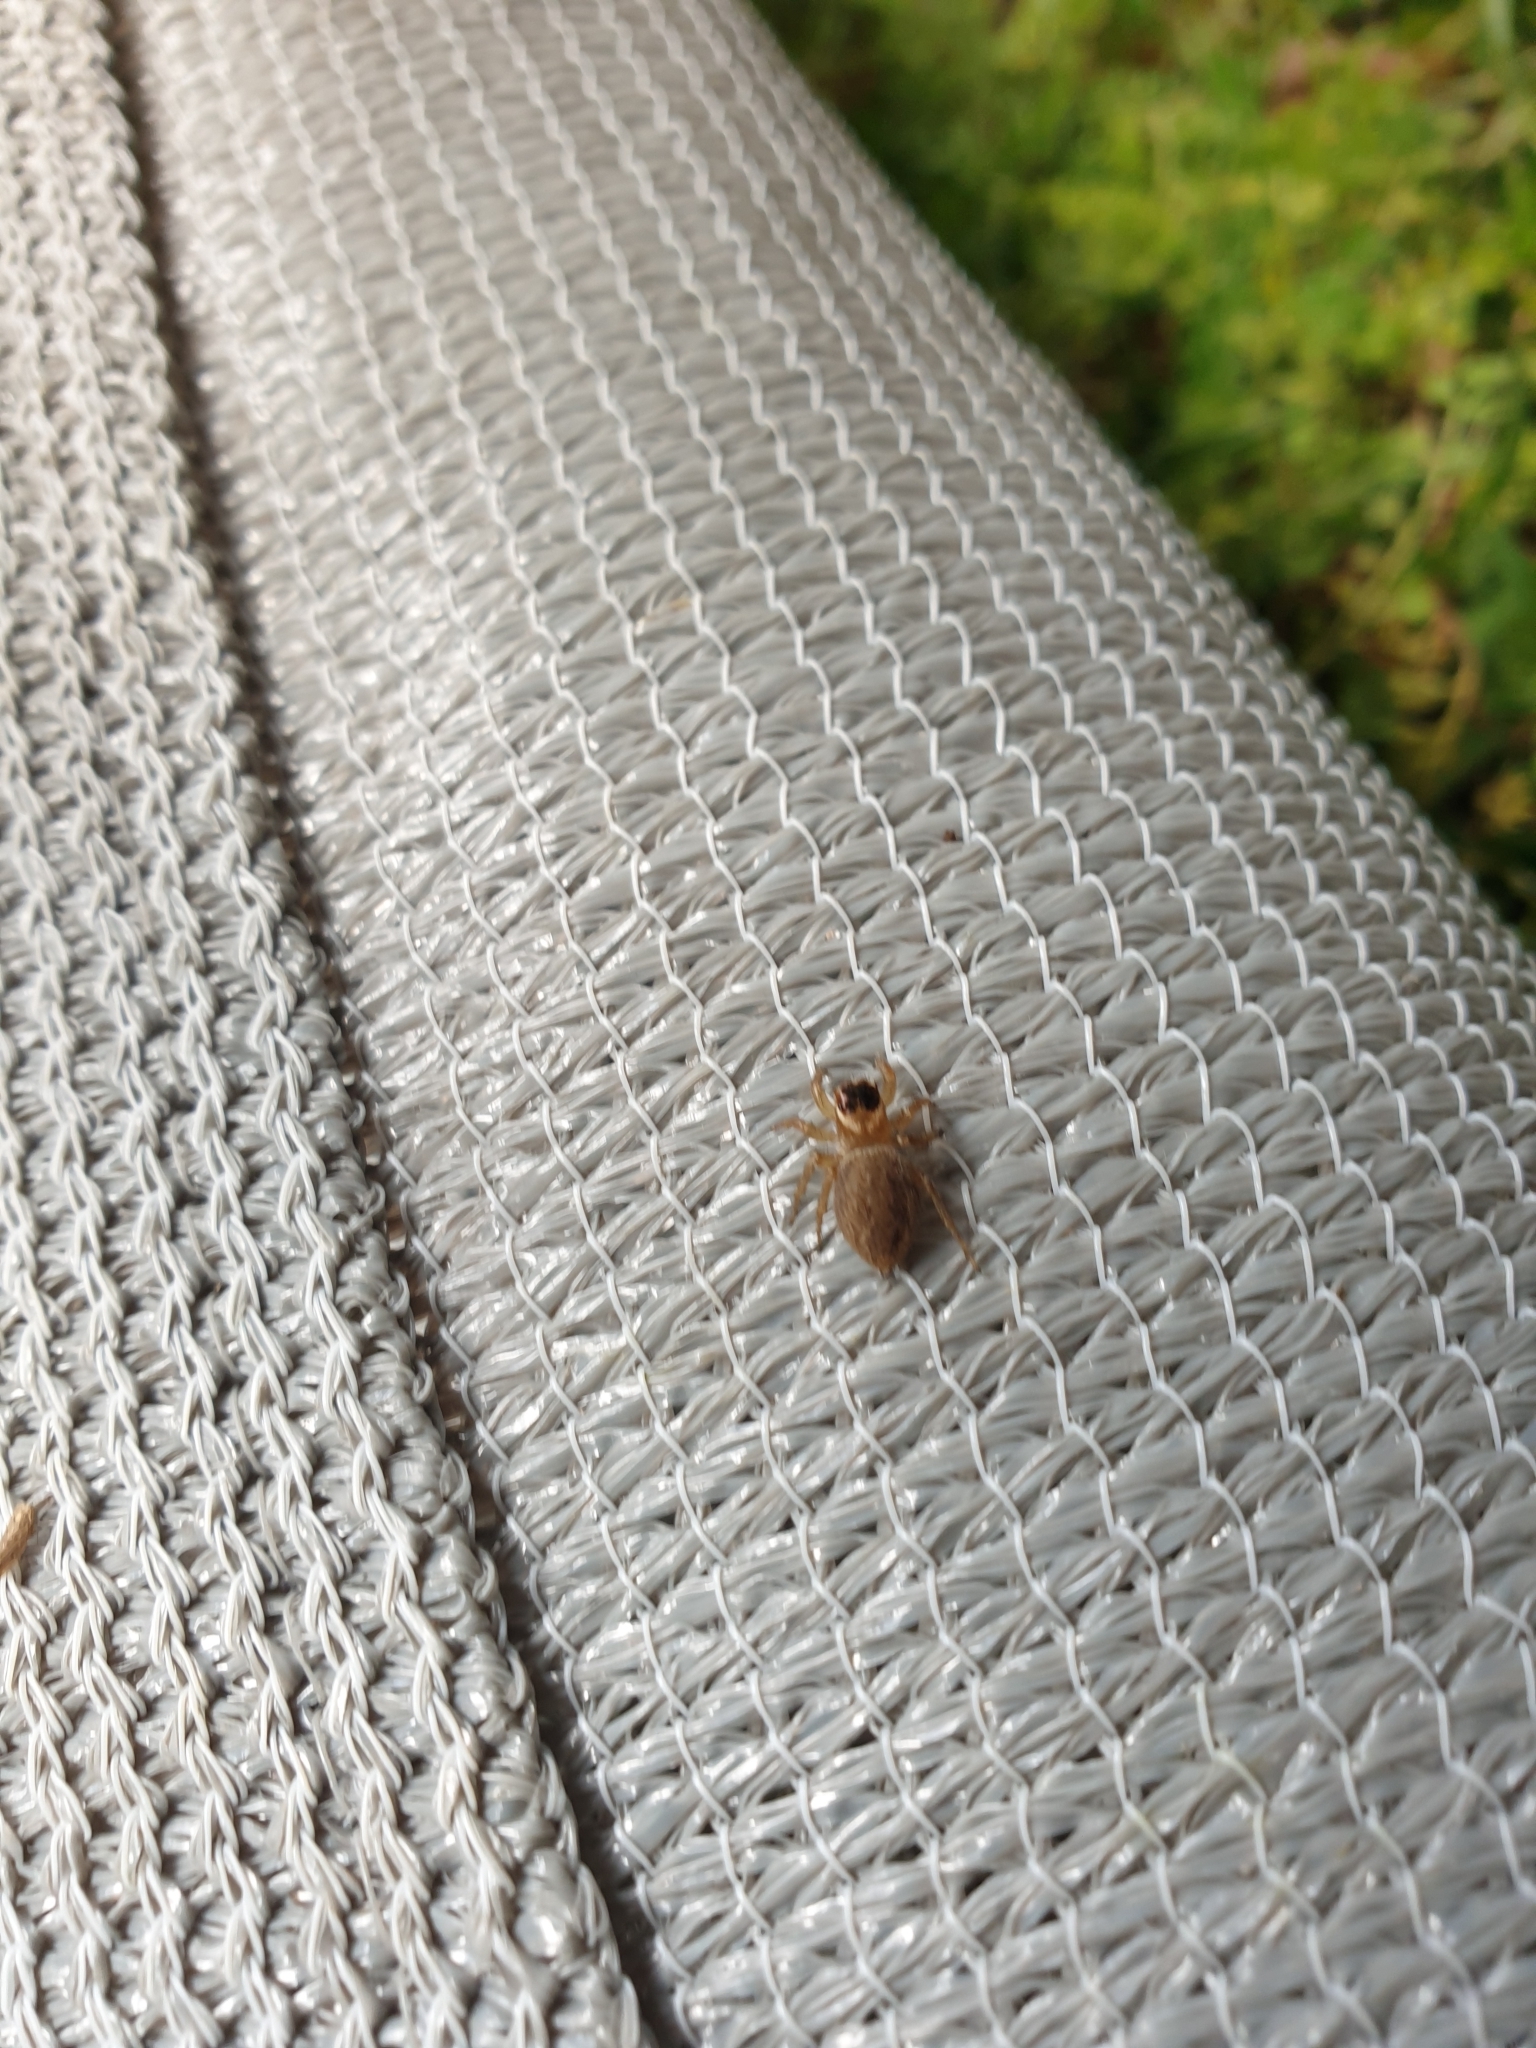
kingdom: Animalia
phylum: Arthropoda
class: Arachnida
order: Araneae
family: Salticidae
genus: Maratus
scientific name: Maratus griseus
